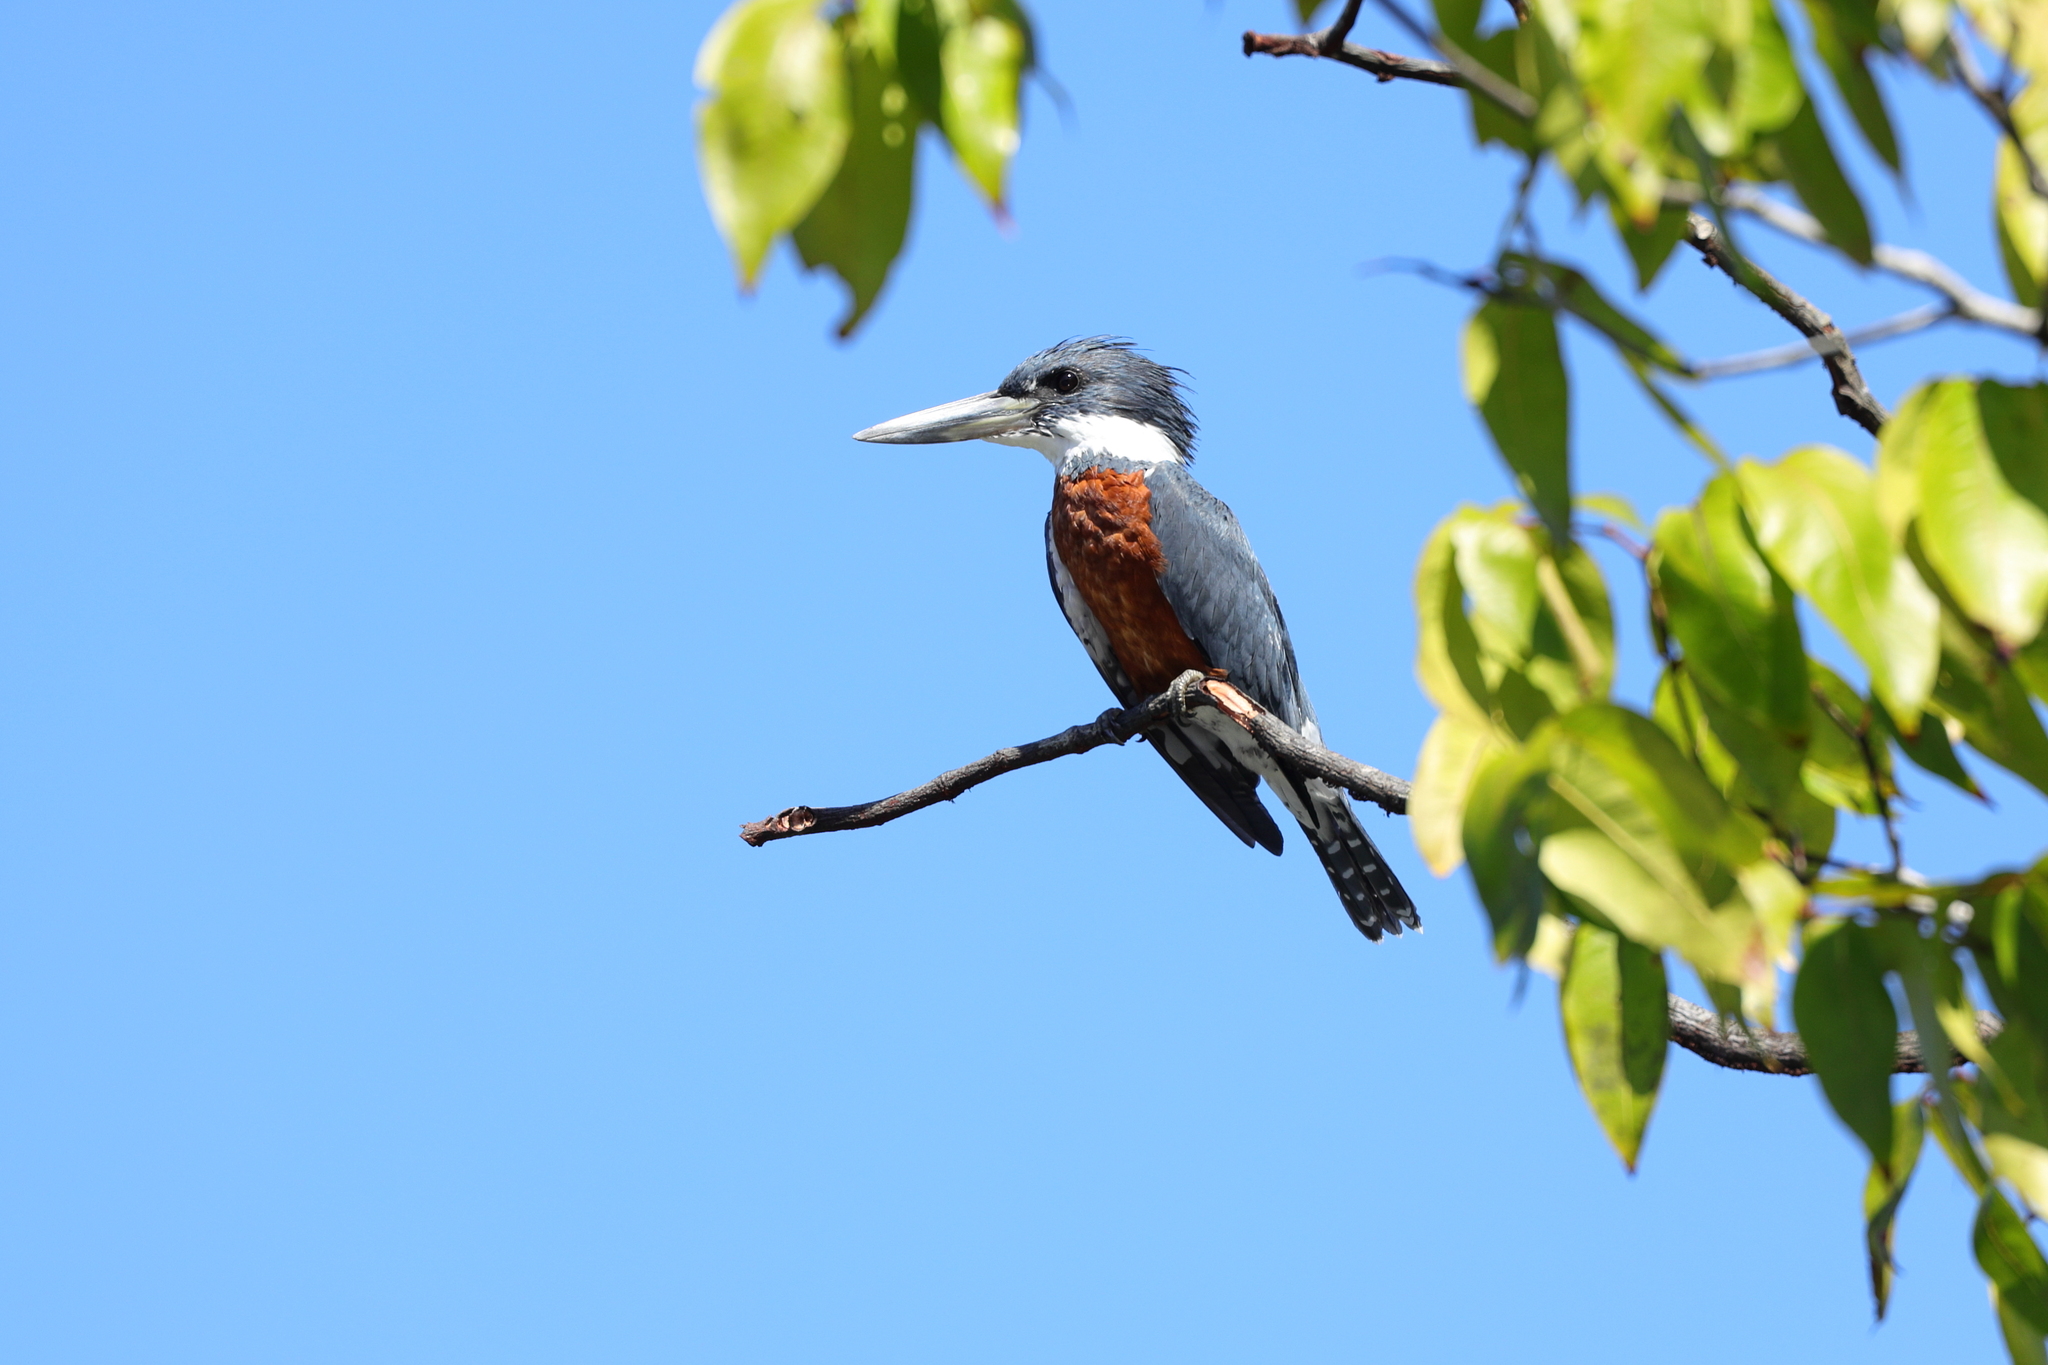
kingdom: Animalia
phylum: Chordata
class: Aves
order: Coraciiformes
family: Alcedinidae
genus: Megaceryle
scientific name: Megaceryle torquata
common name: Ringed kingfisher
